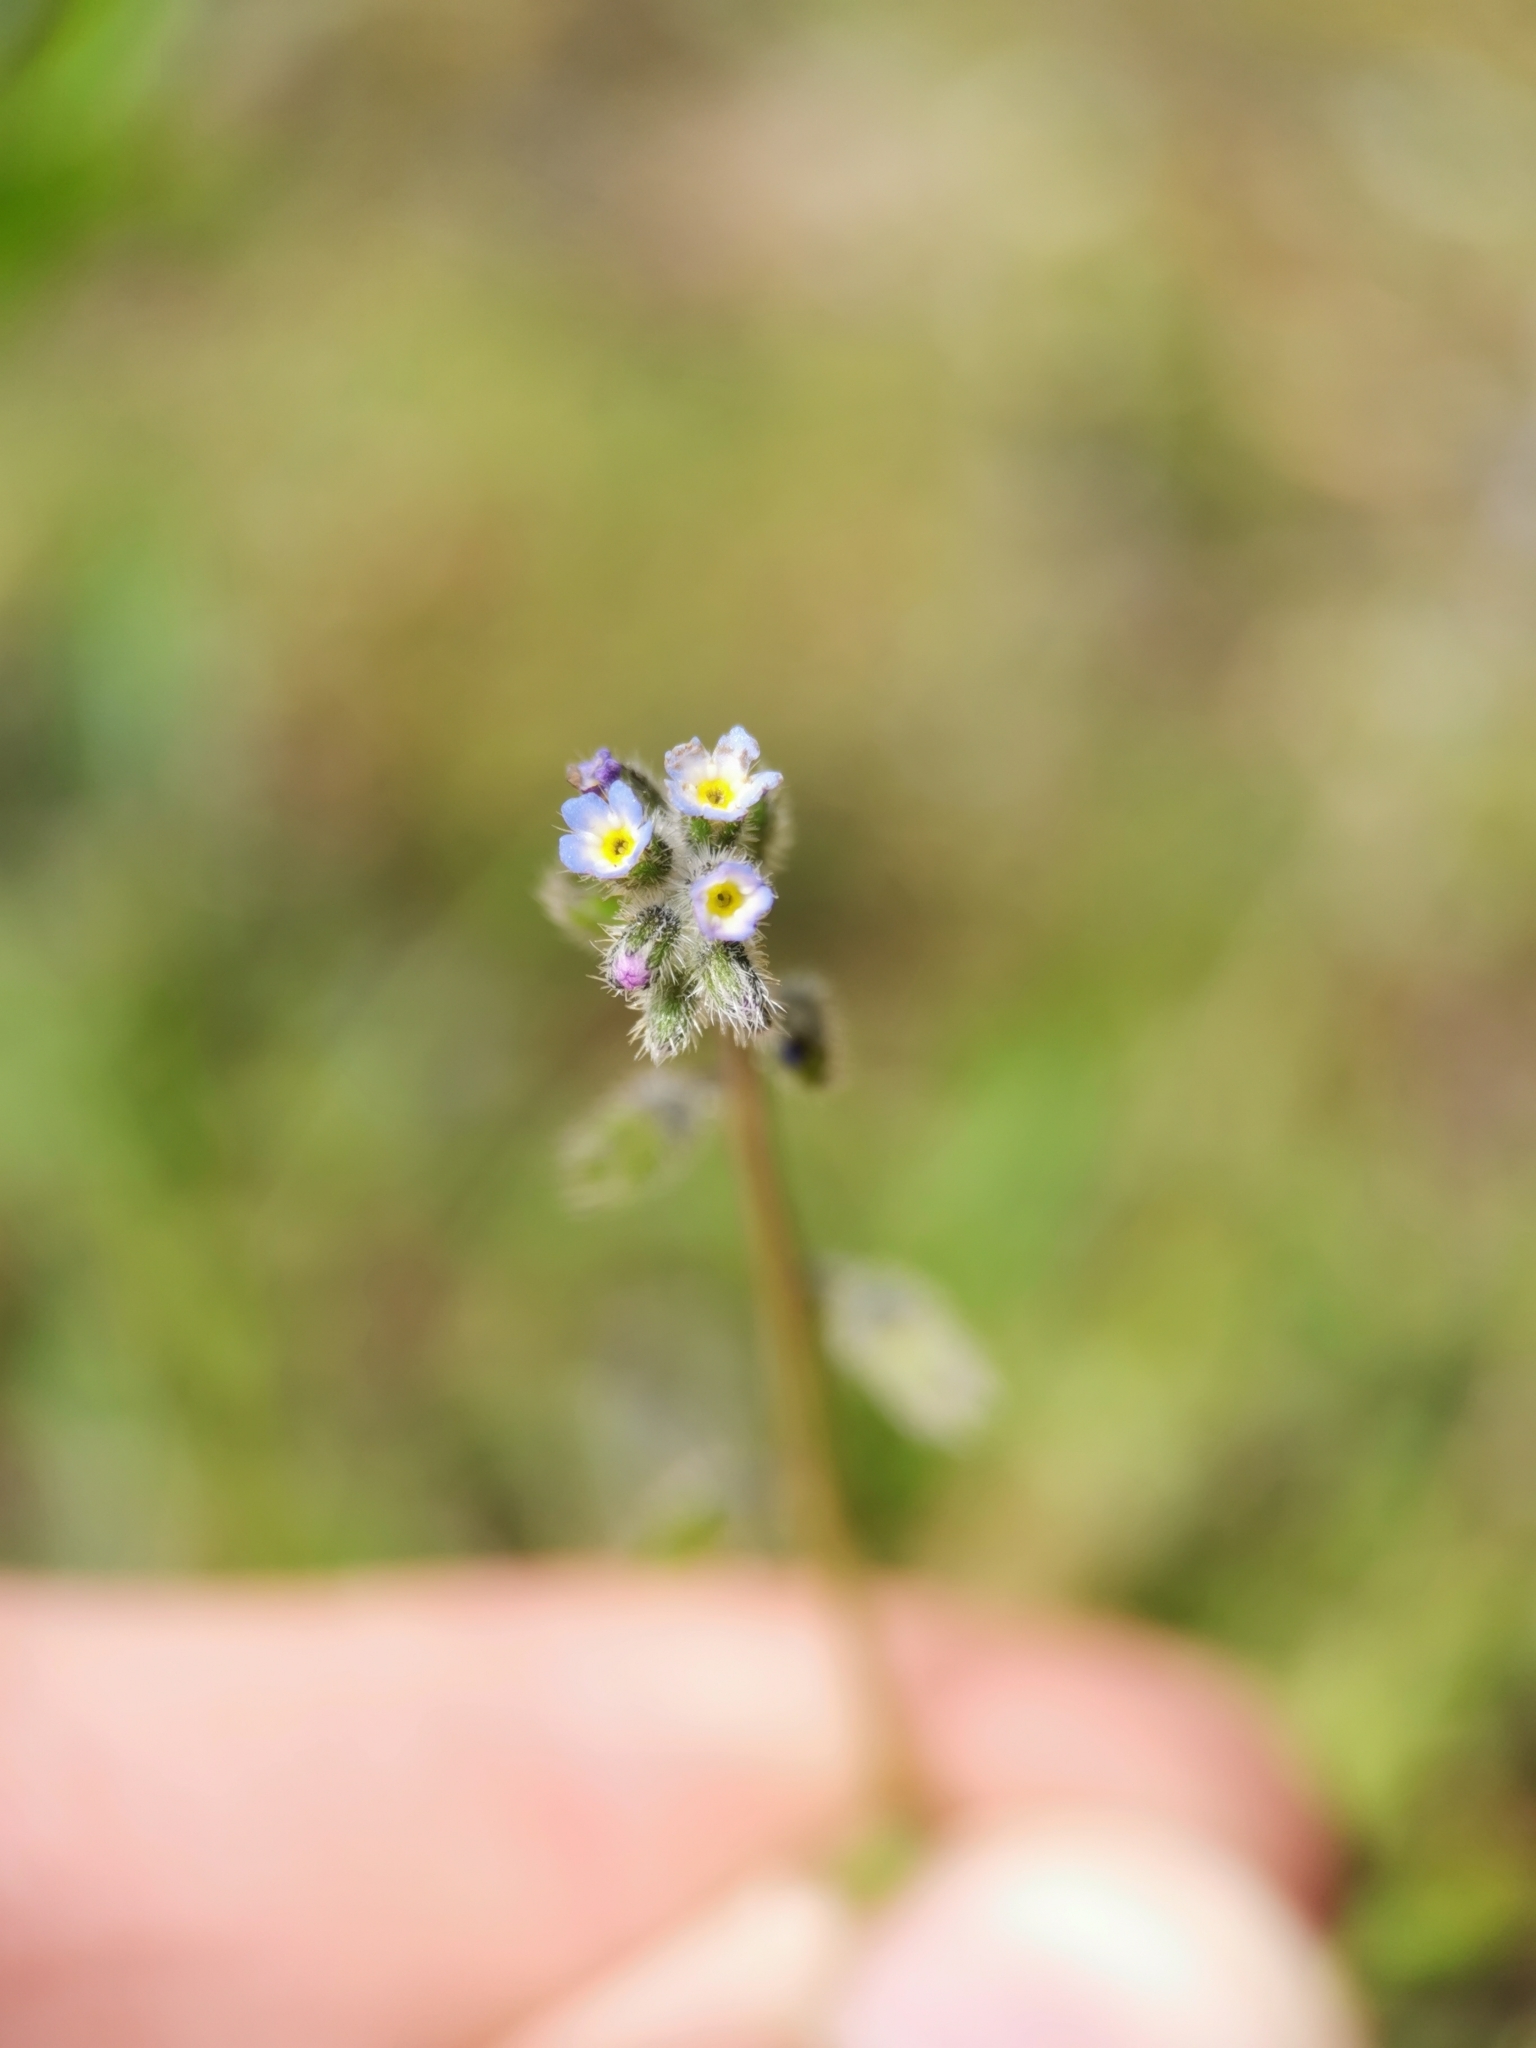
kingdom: Plantae
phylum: Tracheophyta
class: Magnoliopsida
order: Boraginales
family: Boraginaceae
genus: Myosotis
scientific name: Myosotis ramosissima
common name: Early forget-me-not
